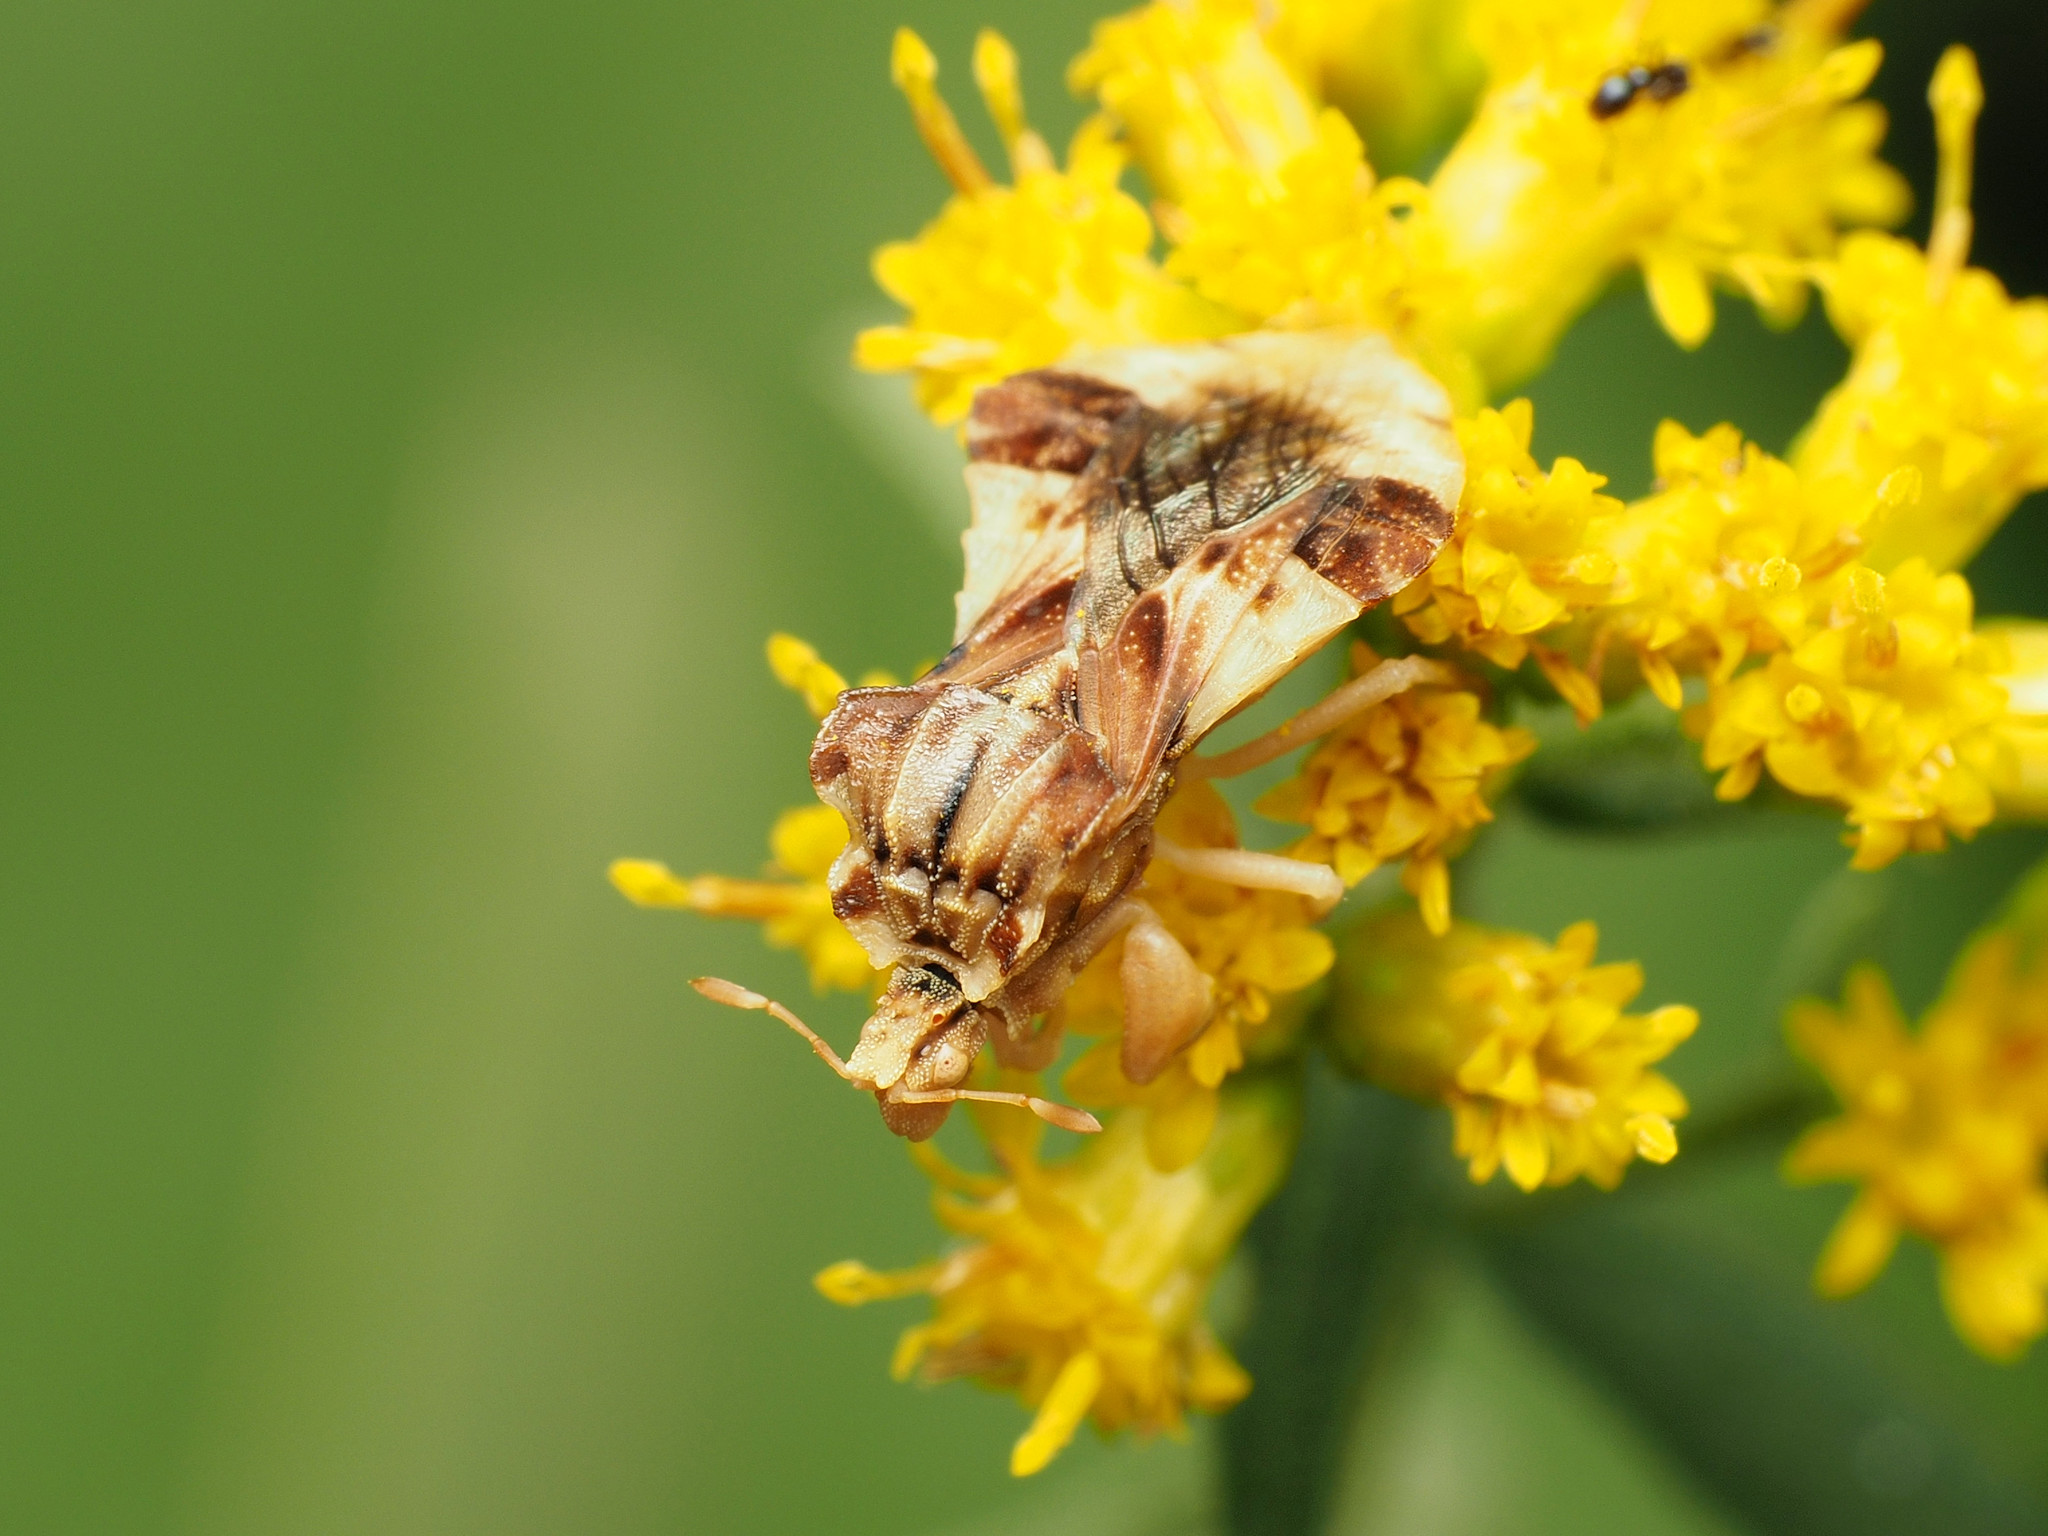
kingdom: Animalia
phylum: Arthropoda
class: Insecta
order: Hemiptera
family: Reduviidae
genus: Phymata
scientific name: Phymata
